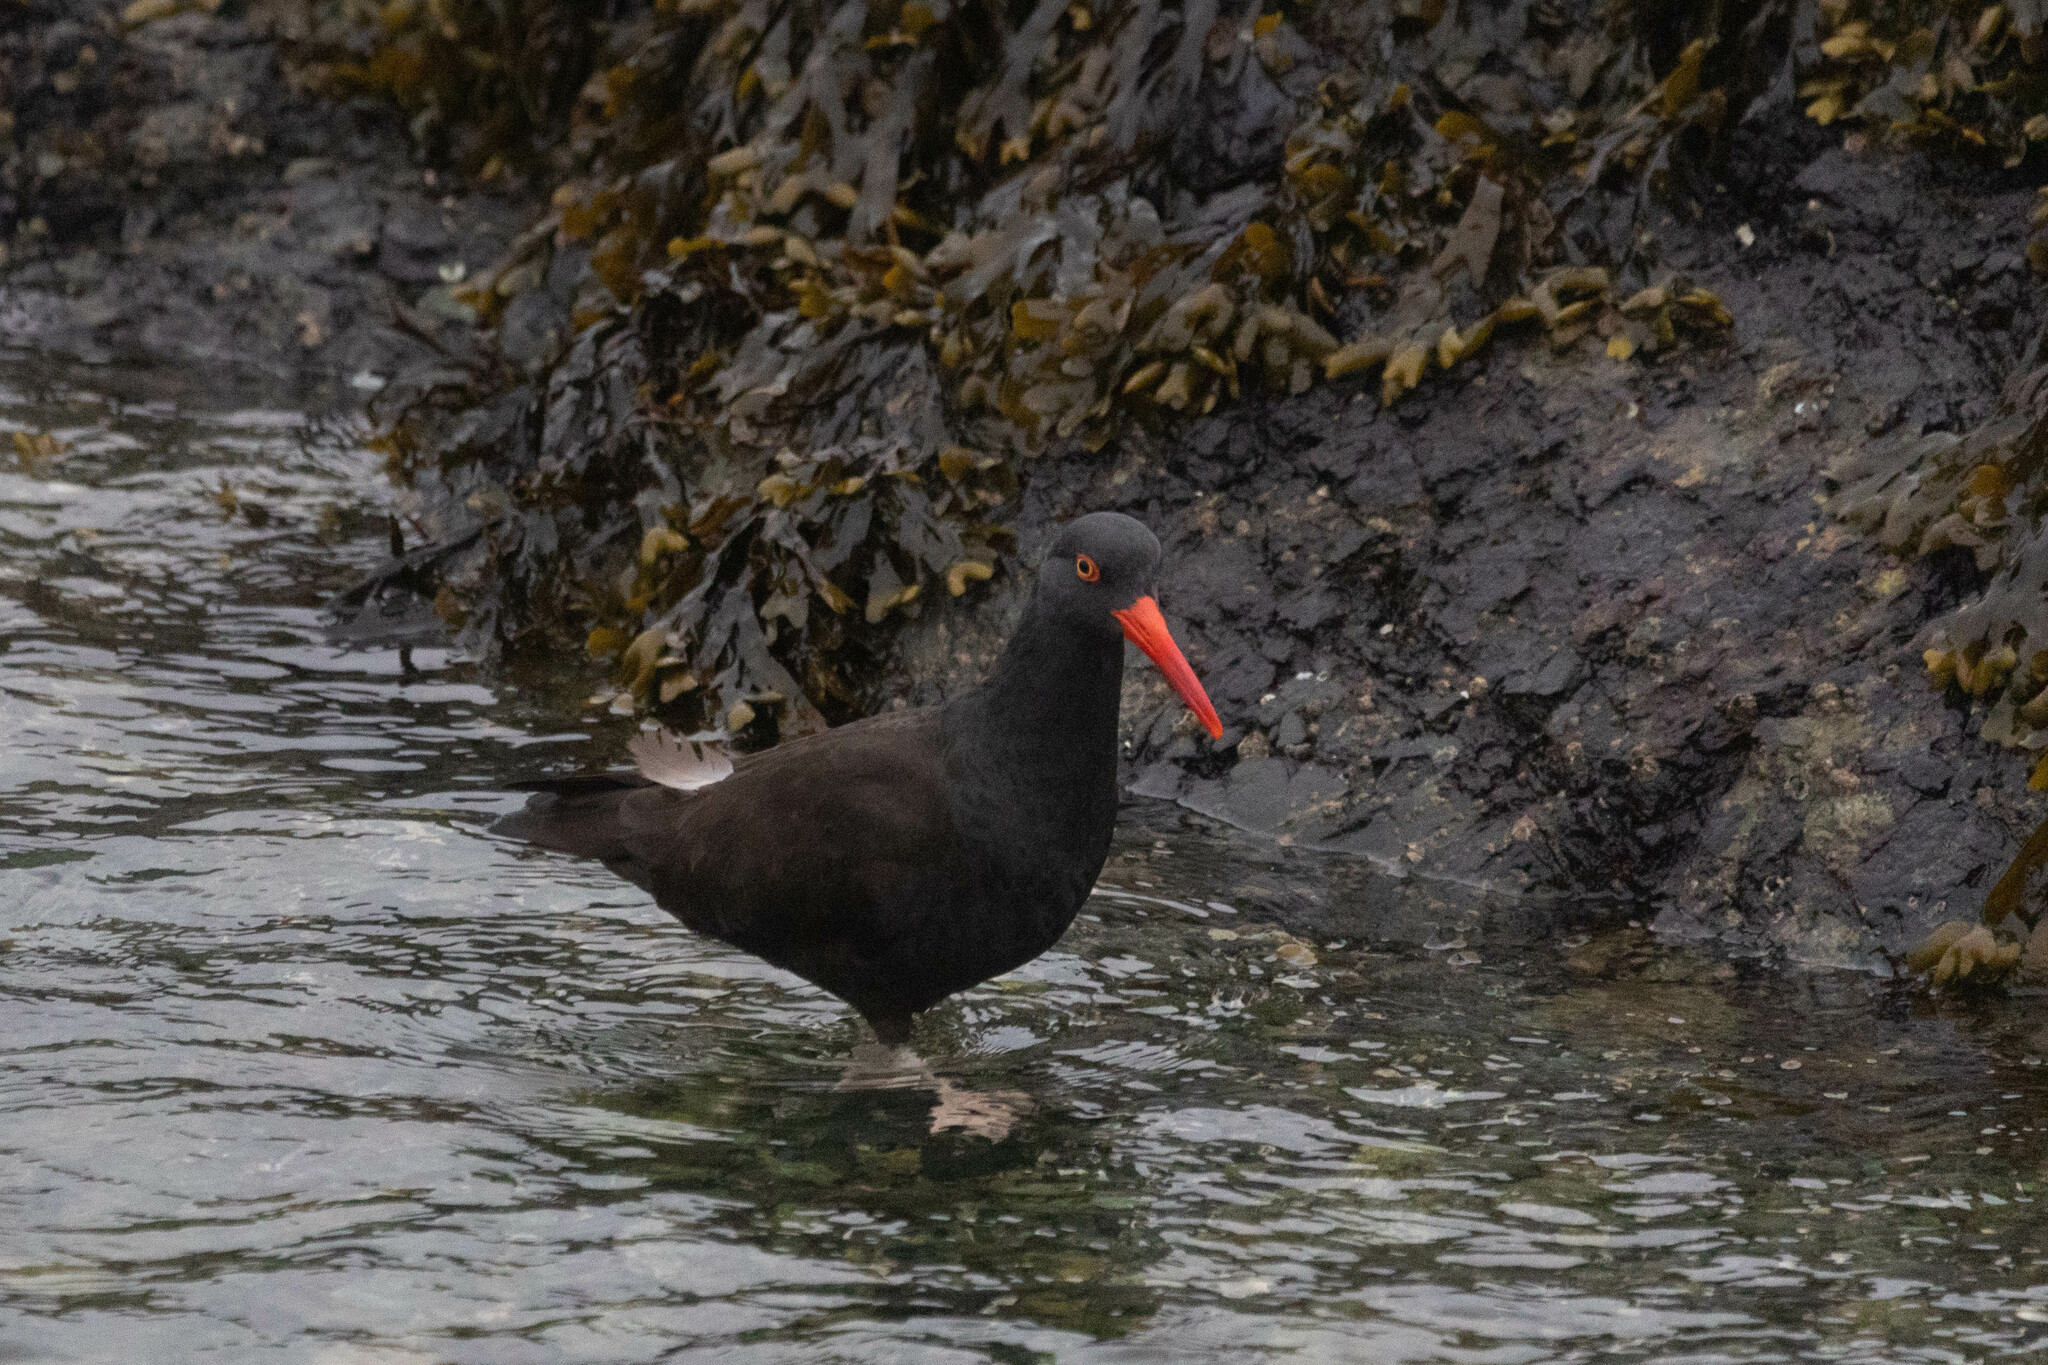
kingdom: Animalia
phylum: Chordata
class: Aves
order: Charadriiformes
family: Haematopodidae
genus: Haematopus
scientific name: Haematopus bachmani
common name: Black oystercatcher
